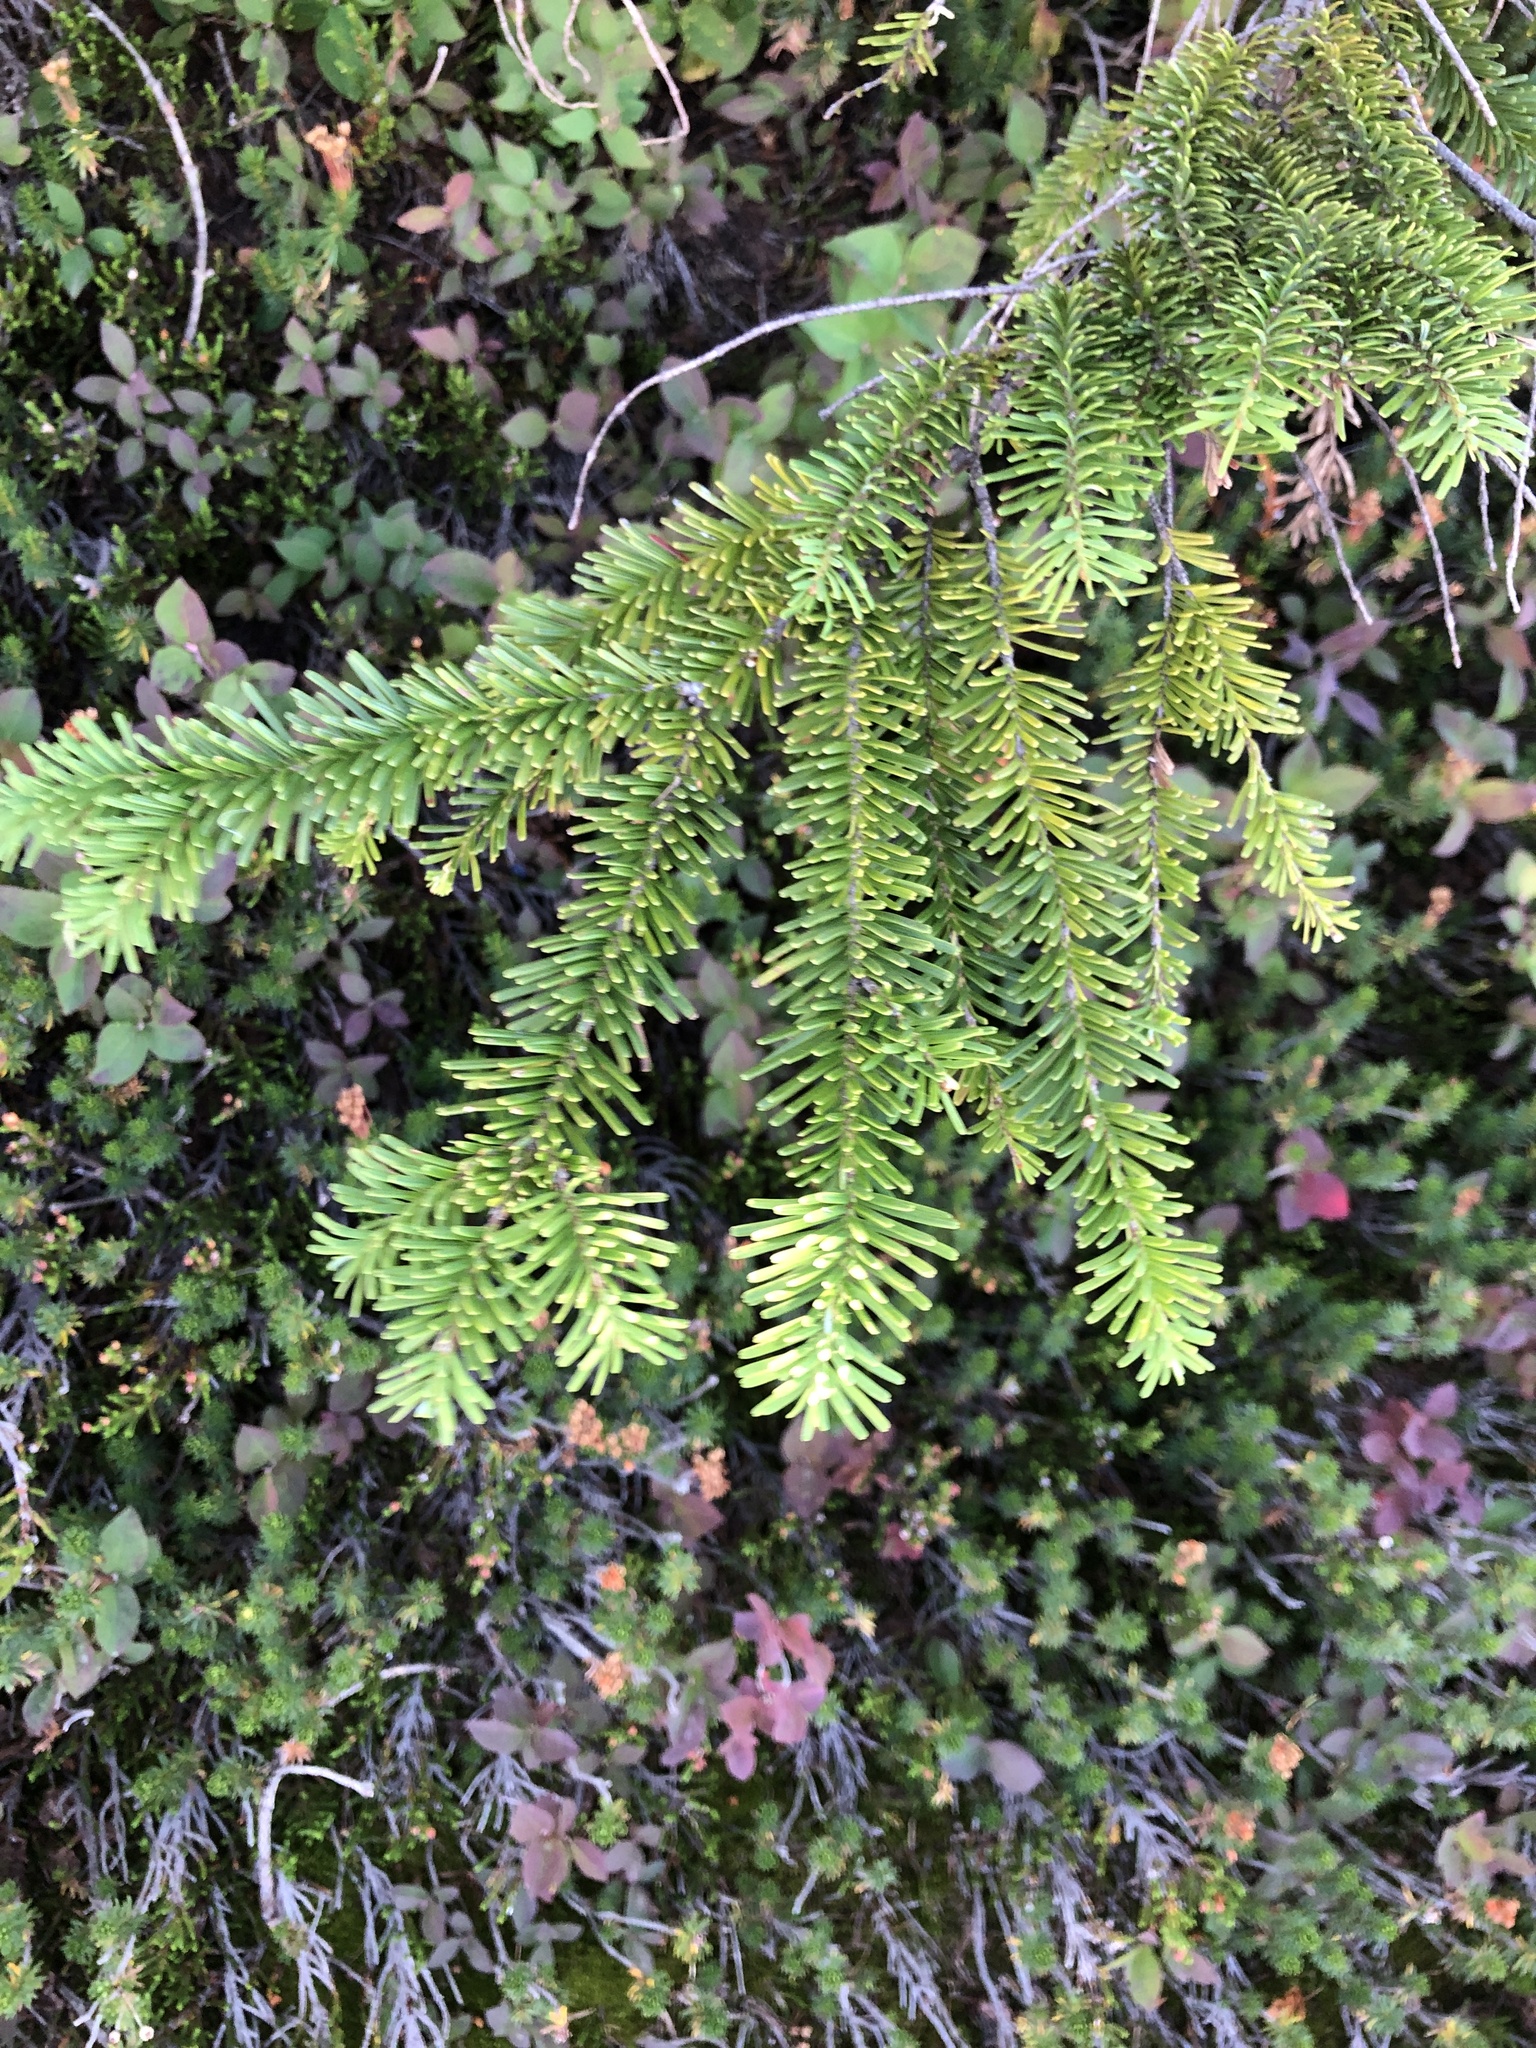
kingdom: Plantae
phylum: Tracheophyta
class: Pinopsida
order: Pinales
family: Pinaceae
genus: Abies
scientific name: Abies amabilis
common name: Pacific silver fir
